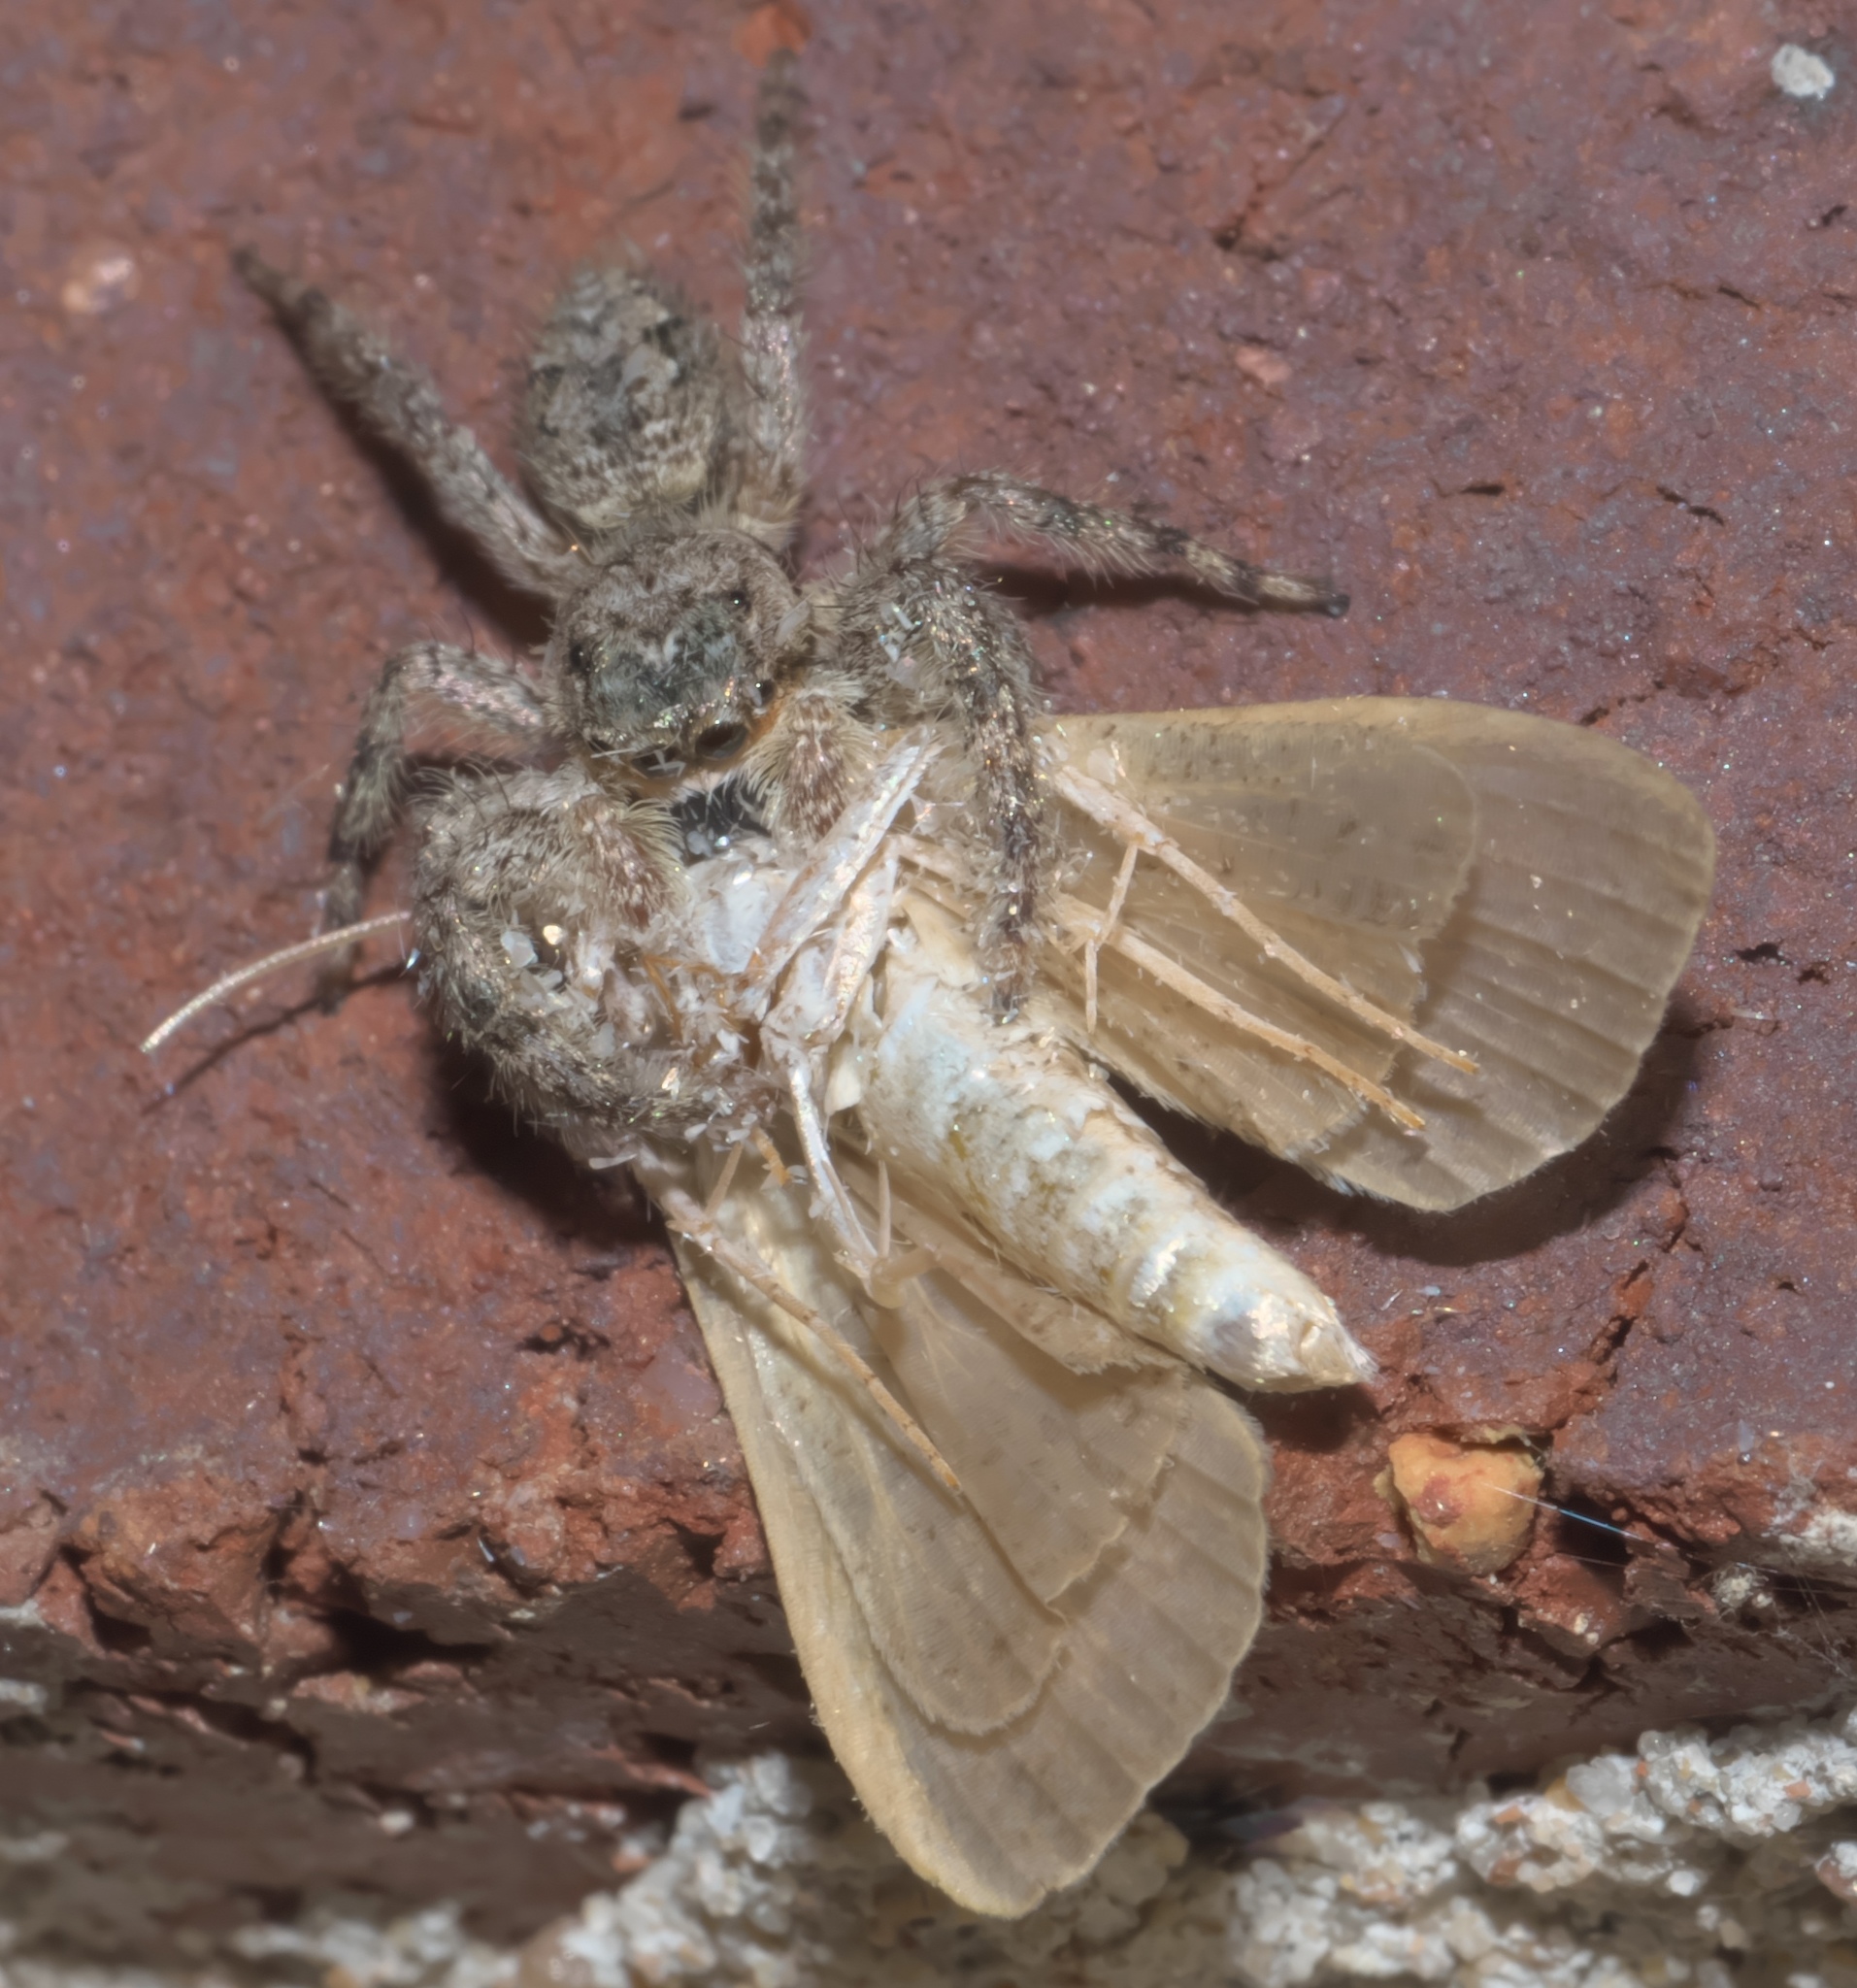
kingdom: Animalia
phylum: Arthropoda
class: Arachnida
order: Araneae
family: Salticidae
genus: Platycryptus
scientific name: Platycryptus undatus
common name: Tan jumping spider
